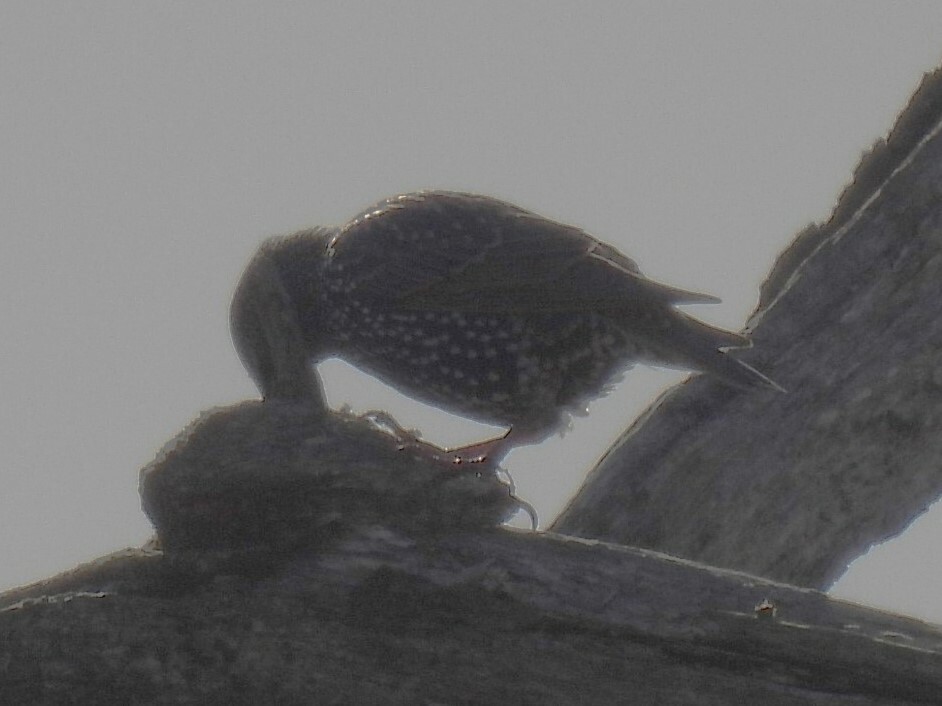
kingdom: Animalia
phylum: Chordata
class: Aves
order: Passeriformes
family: Sturnidae
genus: Sturnus
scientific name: Sturnus vulgaris
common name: Common starling
